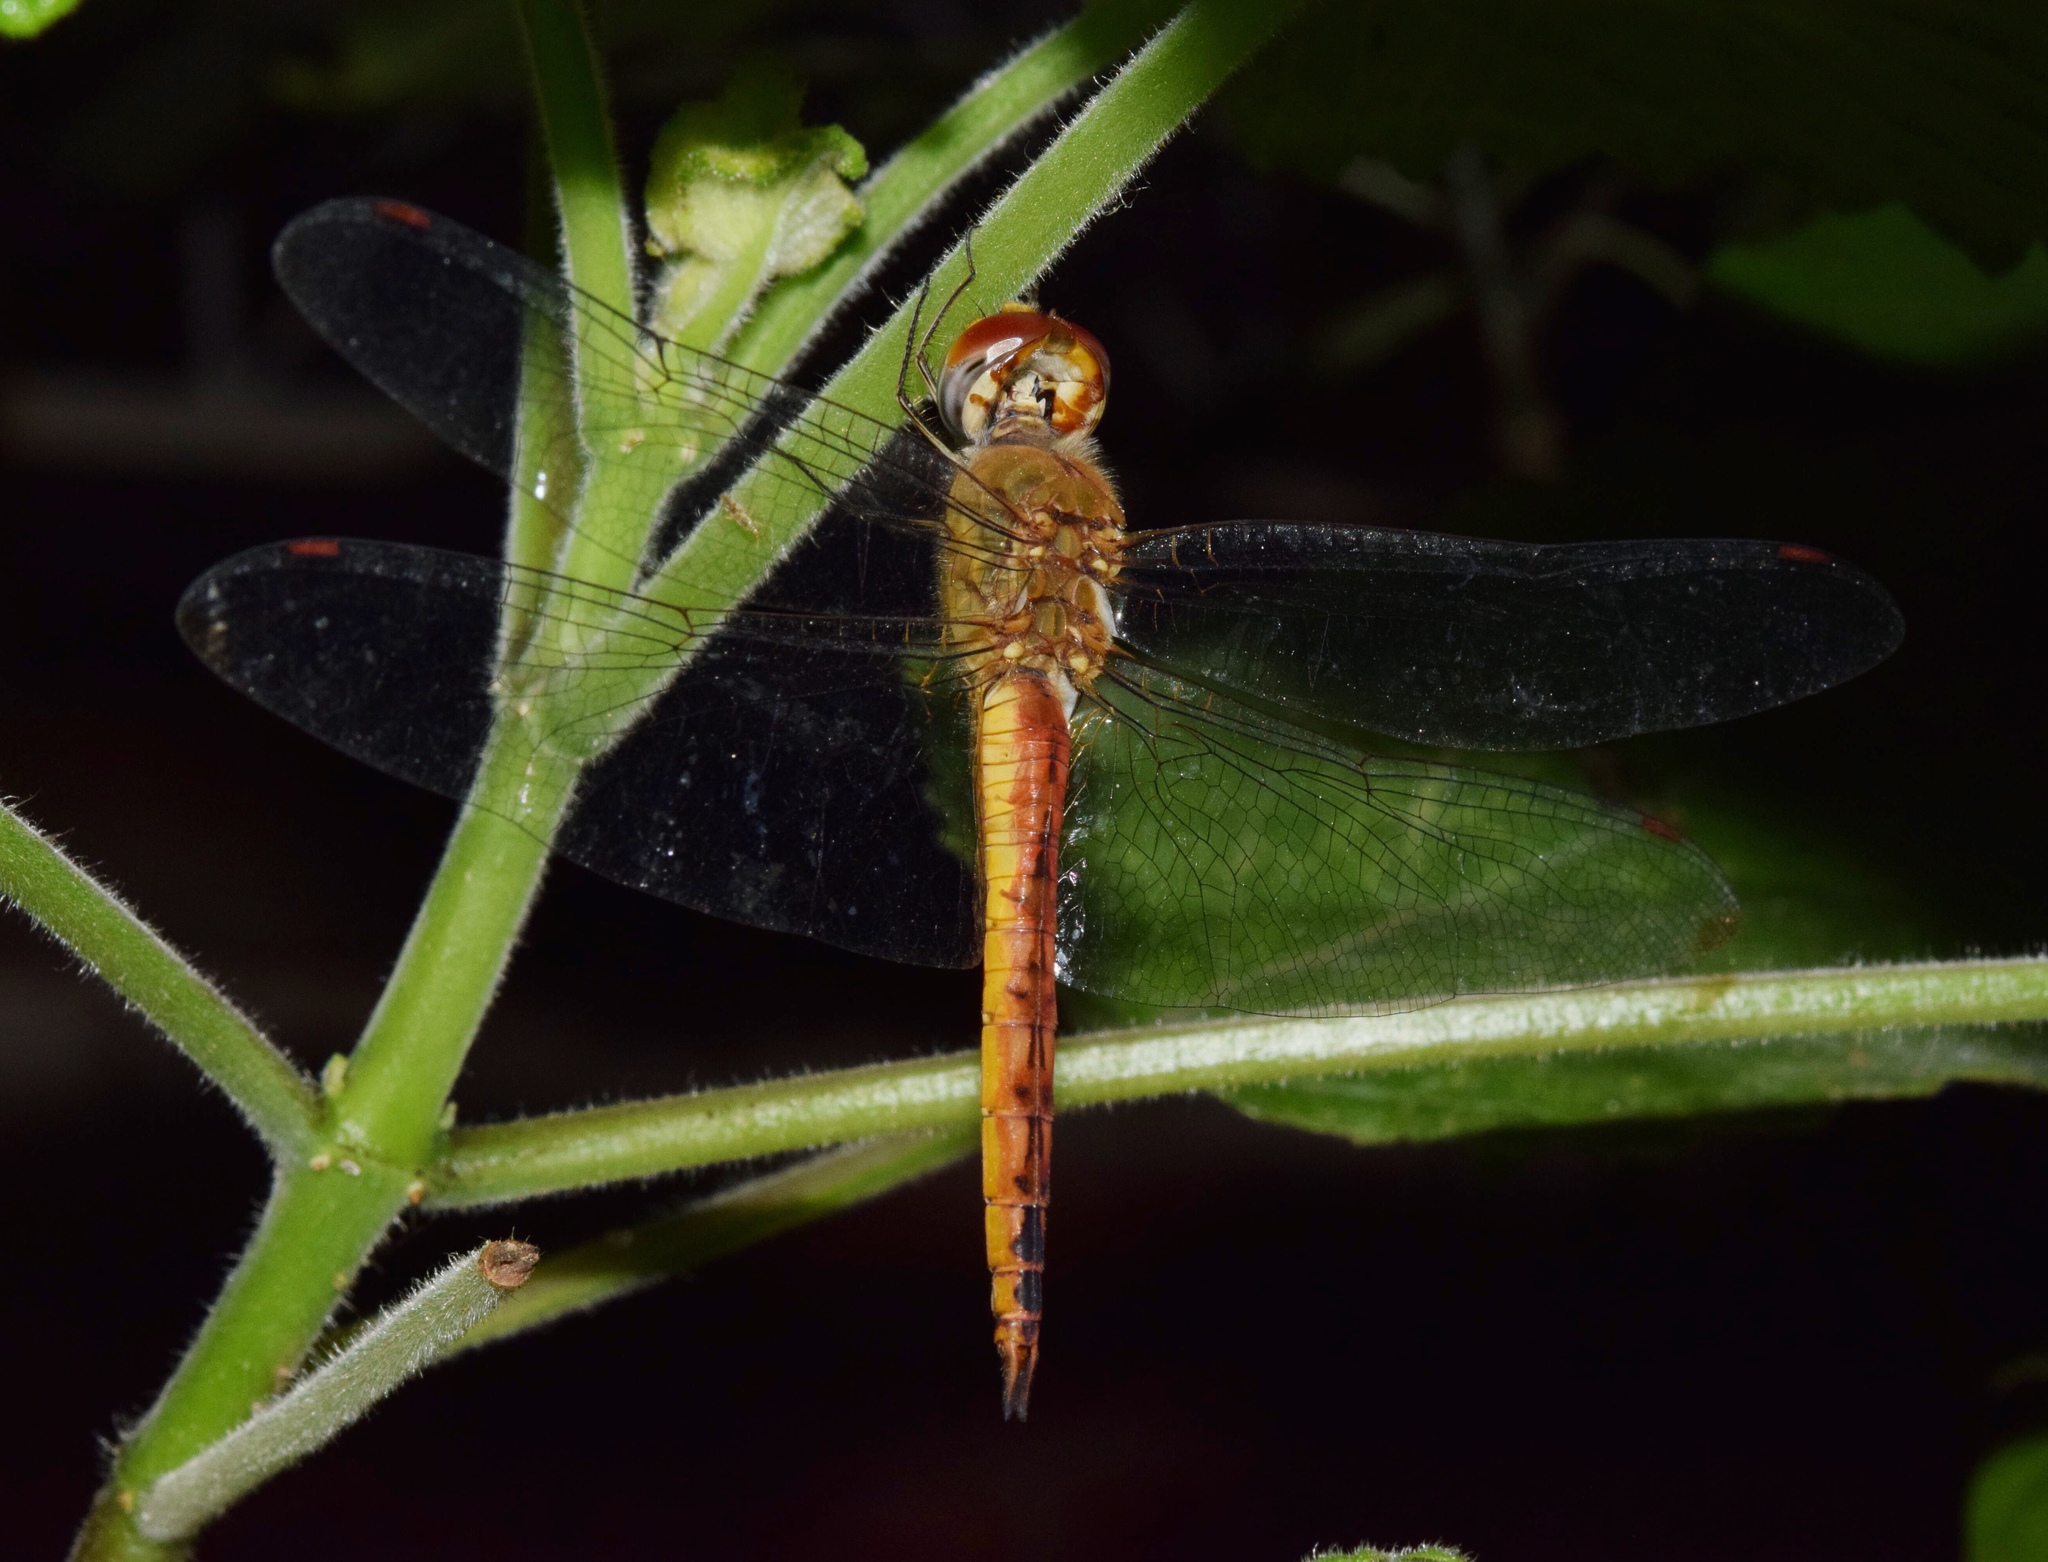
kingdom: Animalia
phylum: Arthropoda
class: Insecta
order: Odonata
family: Libellulidae
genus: Pantala
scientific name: Pantala flavescens
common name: Wandering glider
